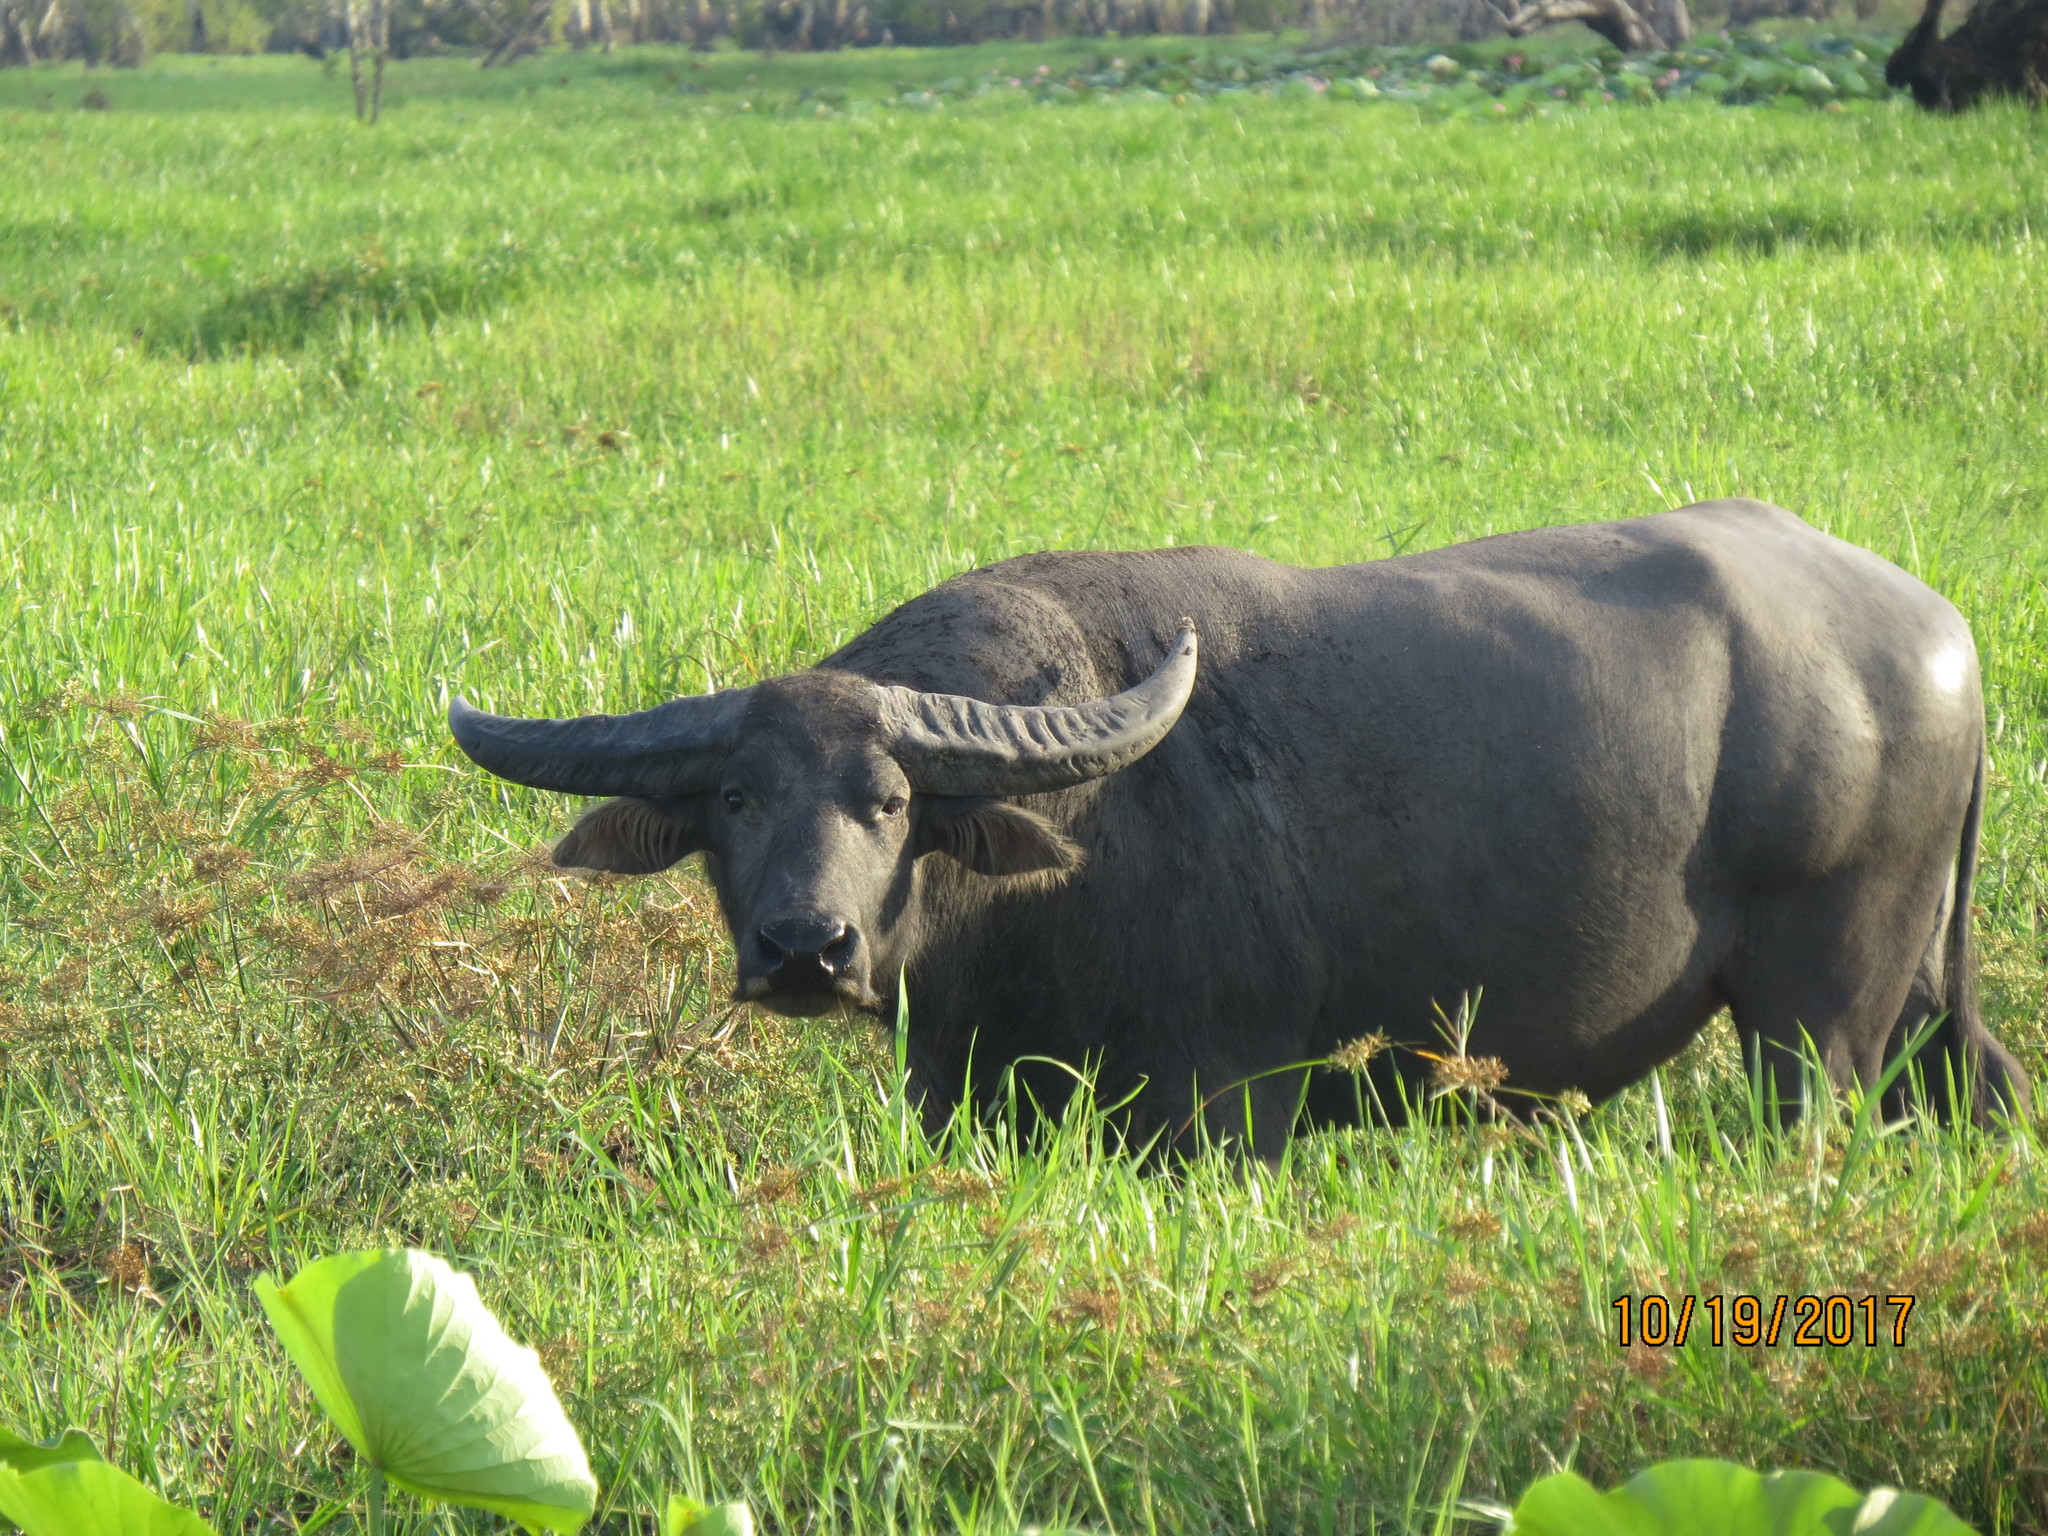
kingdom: Animalia
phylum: Chordata
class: Mammalia
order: Artiodactyla
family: Bovidae
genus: Bubalus
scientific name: Bubalus bubalis
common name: Water buffalo
